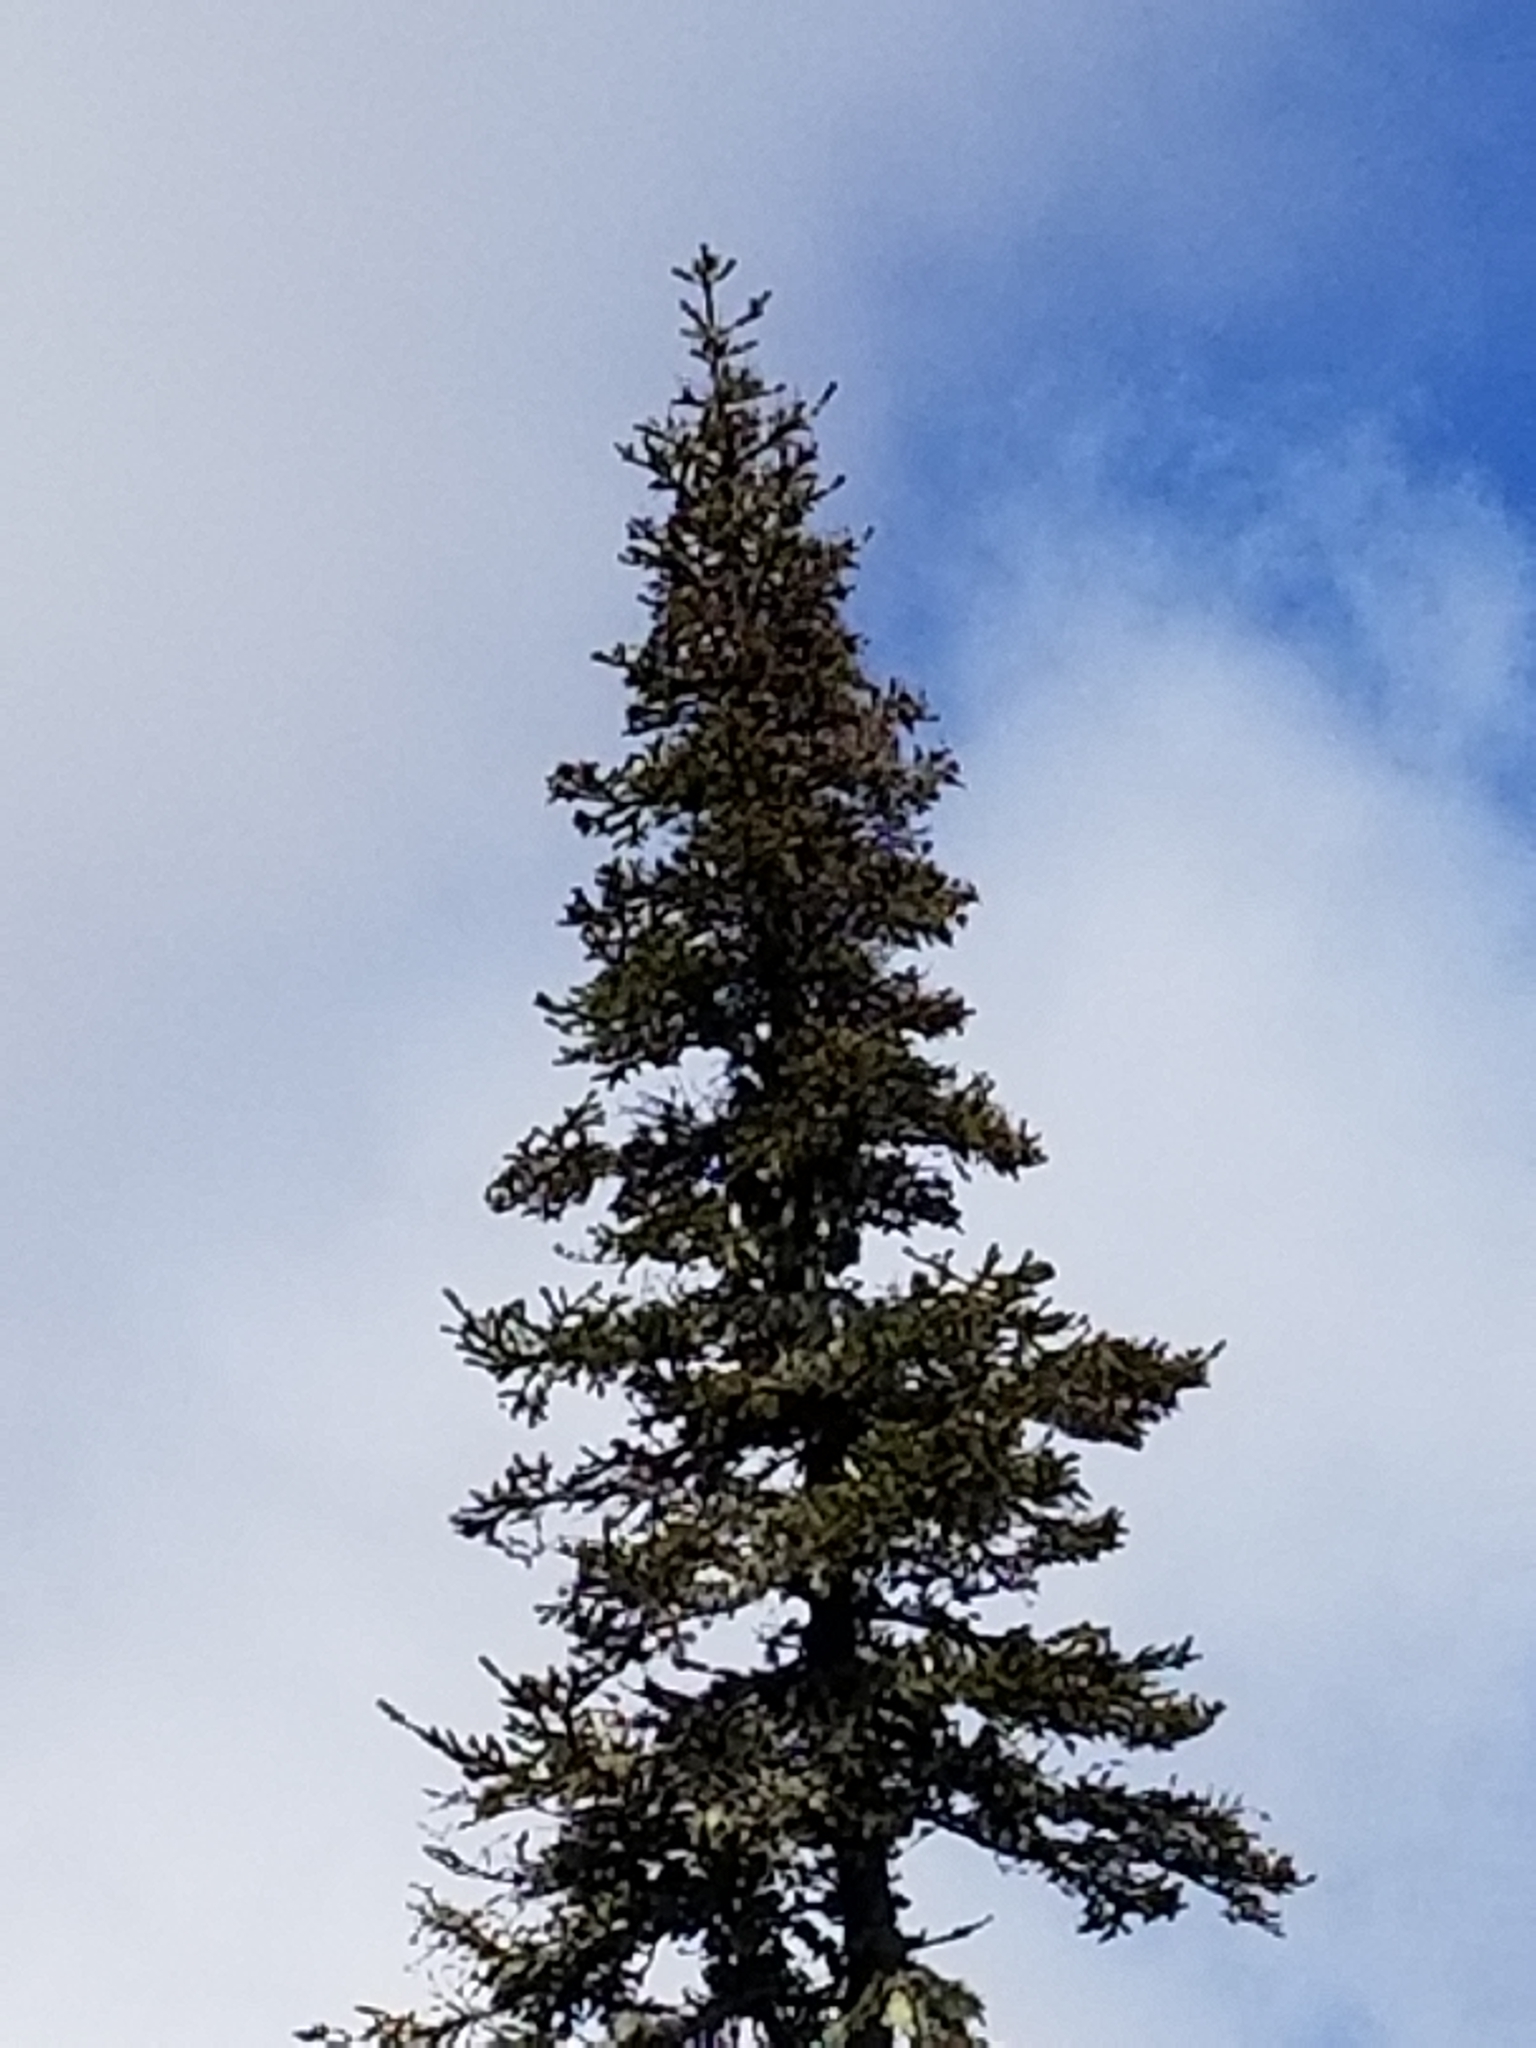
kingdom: Plantae
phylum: Tracheophyta
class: Pinopsida
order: Pinales
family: Pinaceae
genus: Abies
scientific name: Abies balsamea
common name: Balsam fir
